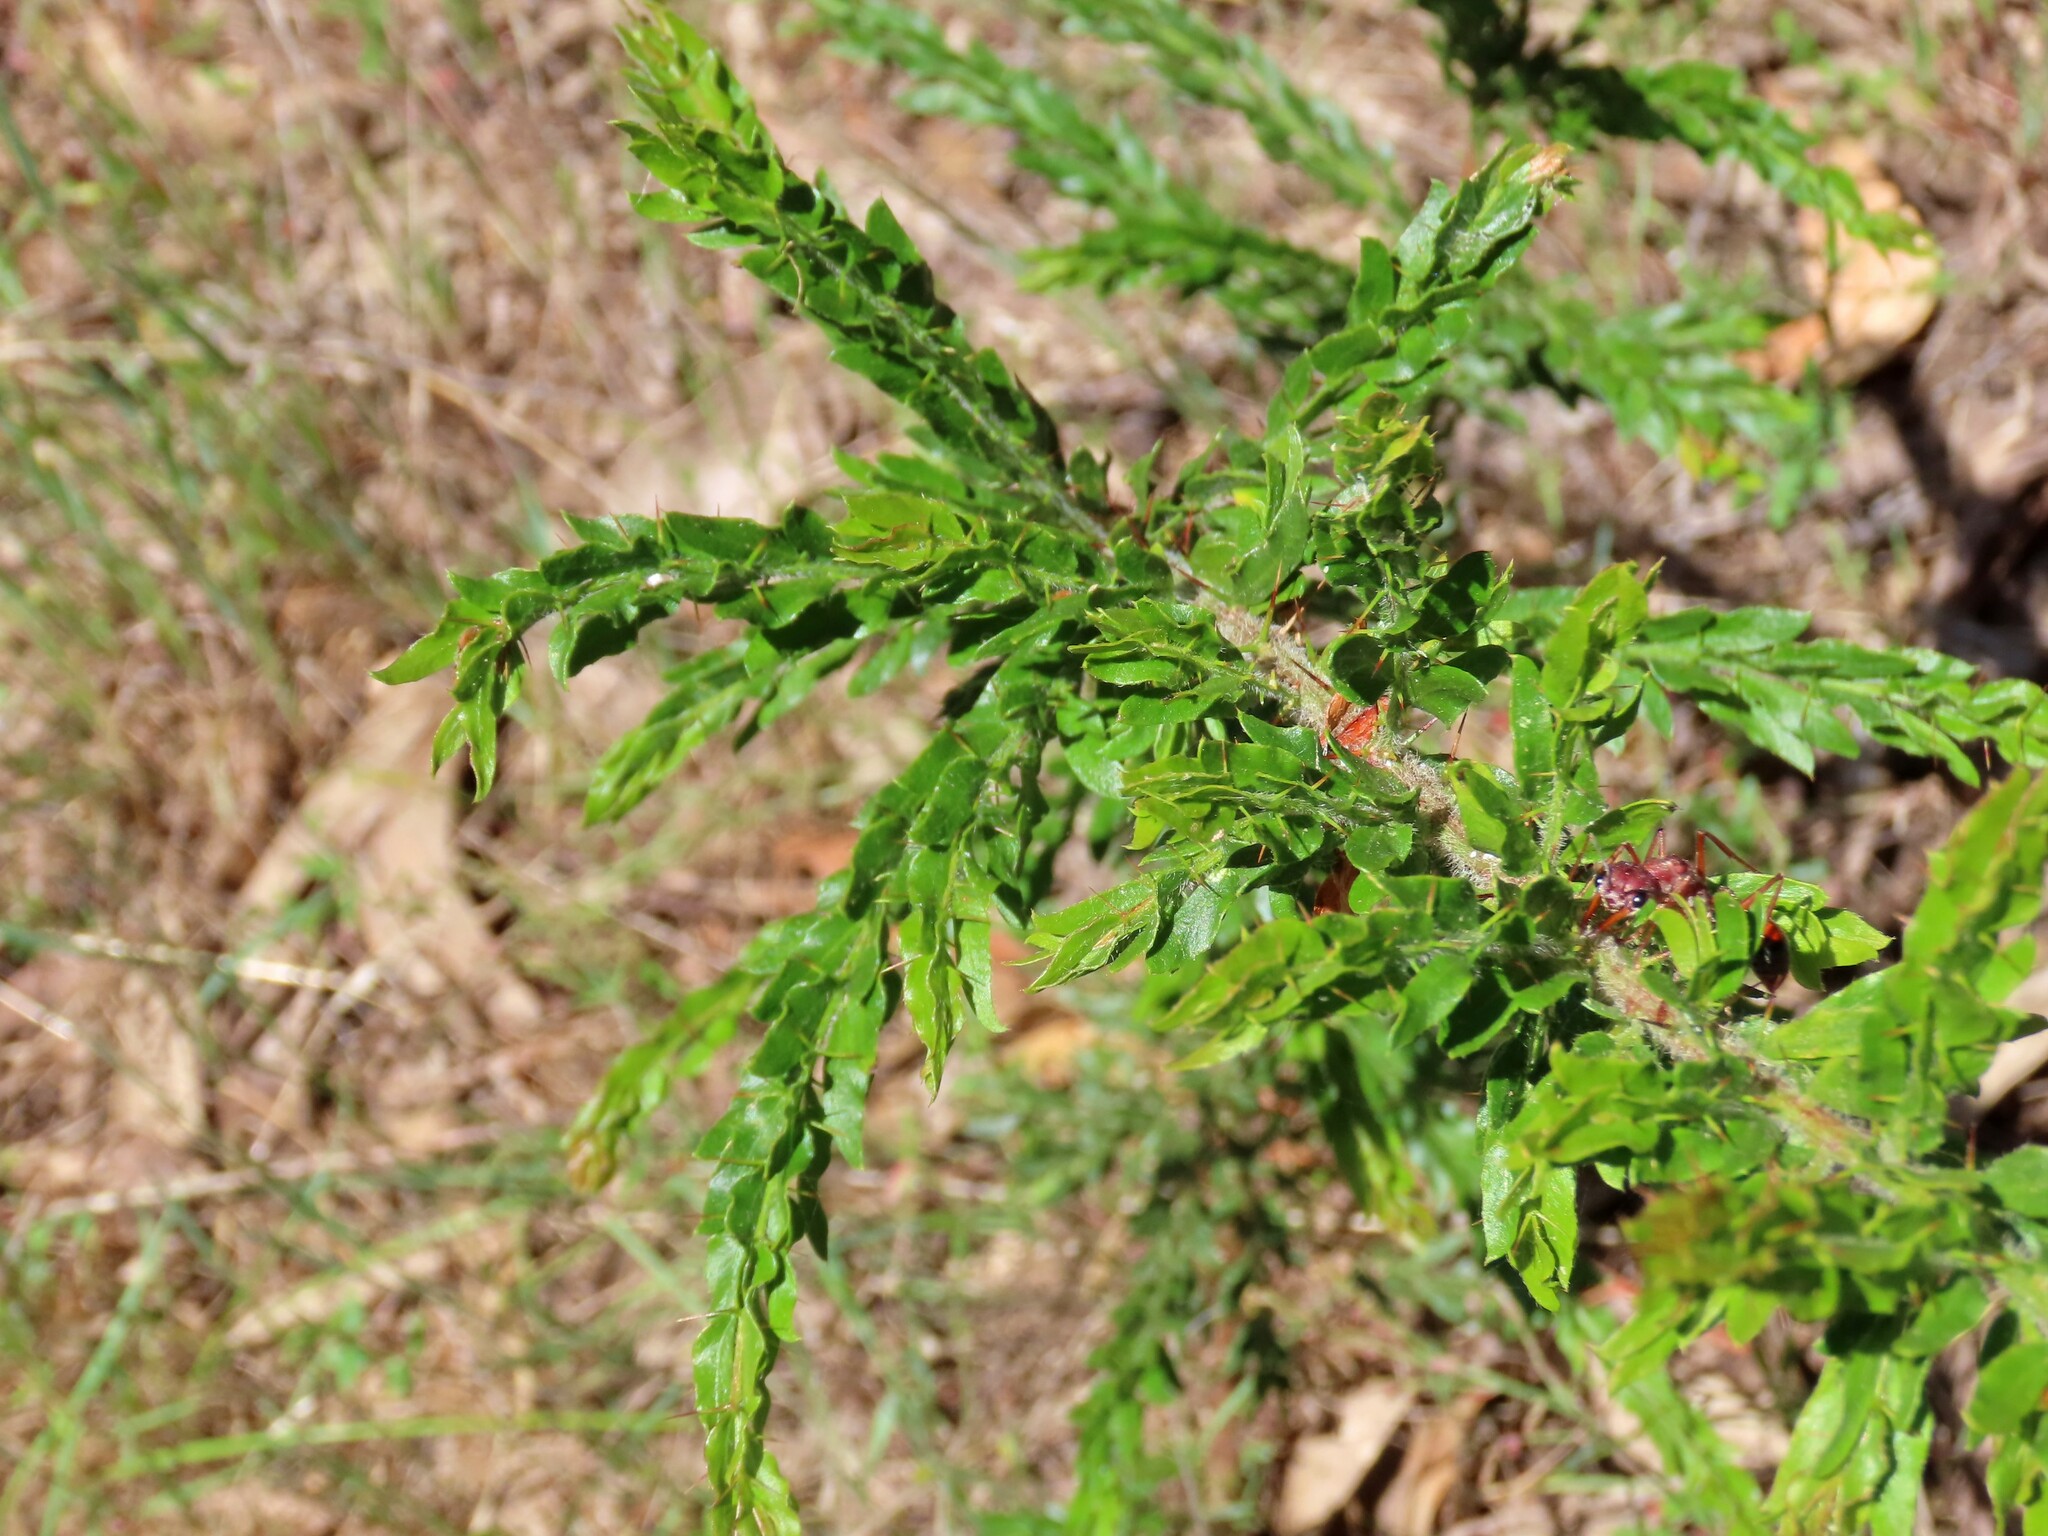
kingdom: Plantae
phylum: Tracheophyta
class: Magnoliopsida
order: Fabales
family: Fabaceae
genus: Acacia
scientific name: Acacia paradoxa
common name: Paradox acacia
